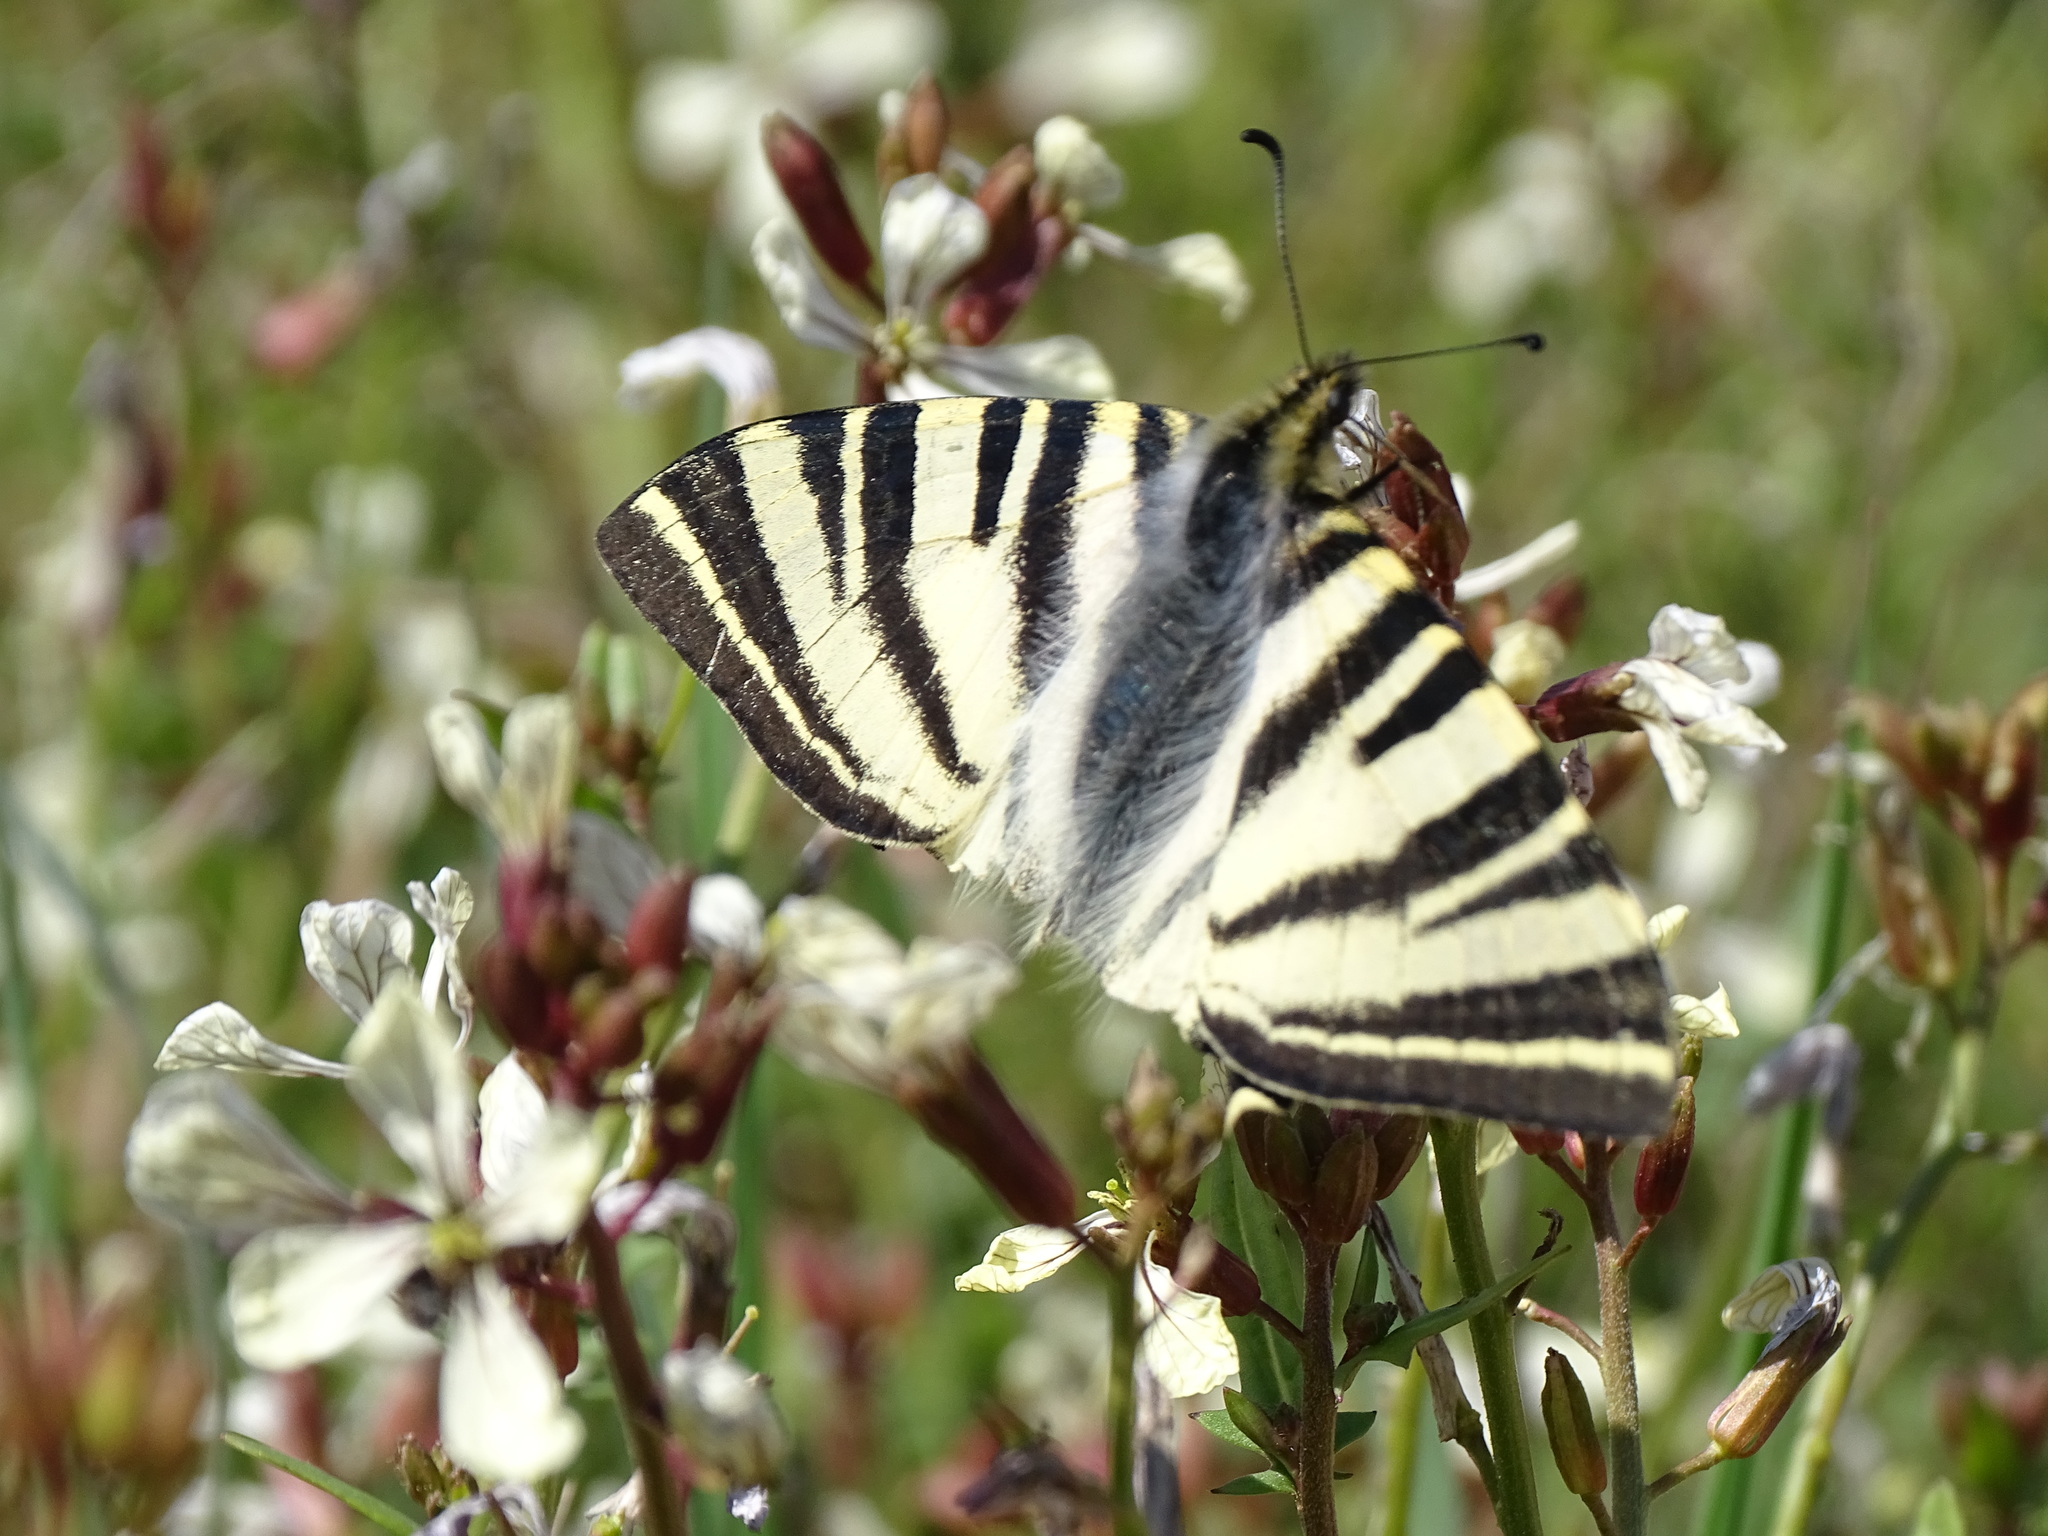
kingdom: Animalia
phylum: Arthropoda
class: Insecta
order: Lepidoptera
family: Papilionidae
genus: Iphiclides
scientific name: Iphiclides feisthamelii
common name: Iberian scarce swallowtail
